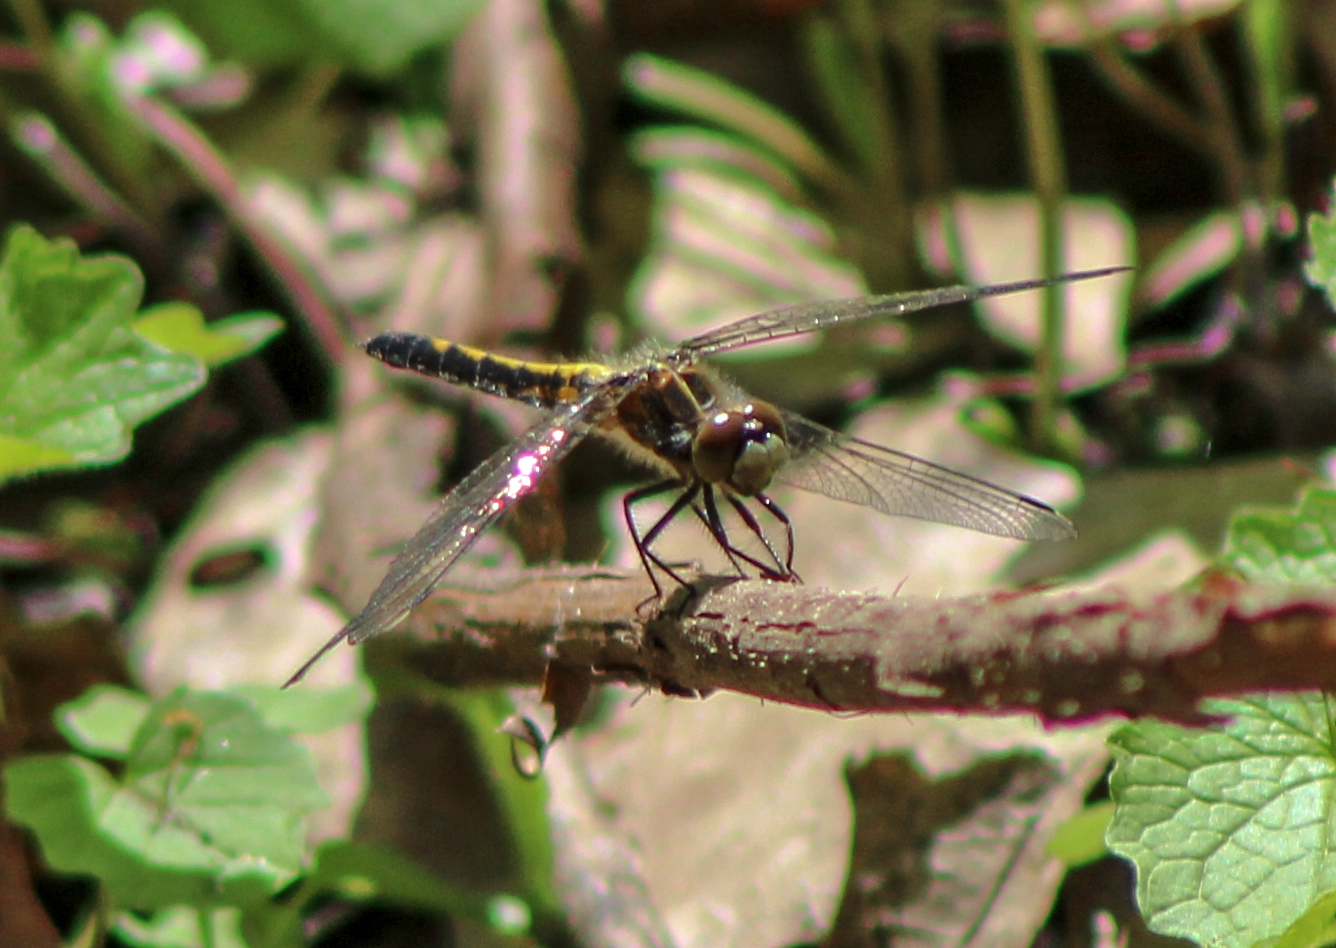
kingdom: Animalia
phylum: Arthropoda
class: Insecta
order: Odonata
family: Libellulidae
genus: Leucorrhinia
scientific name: Leucorrhinia intacta
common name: Dot-tailed whiteface
